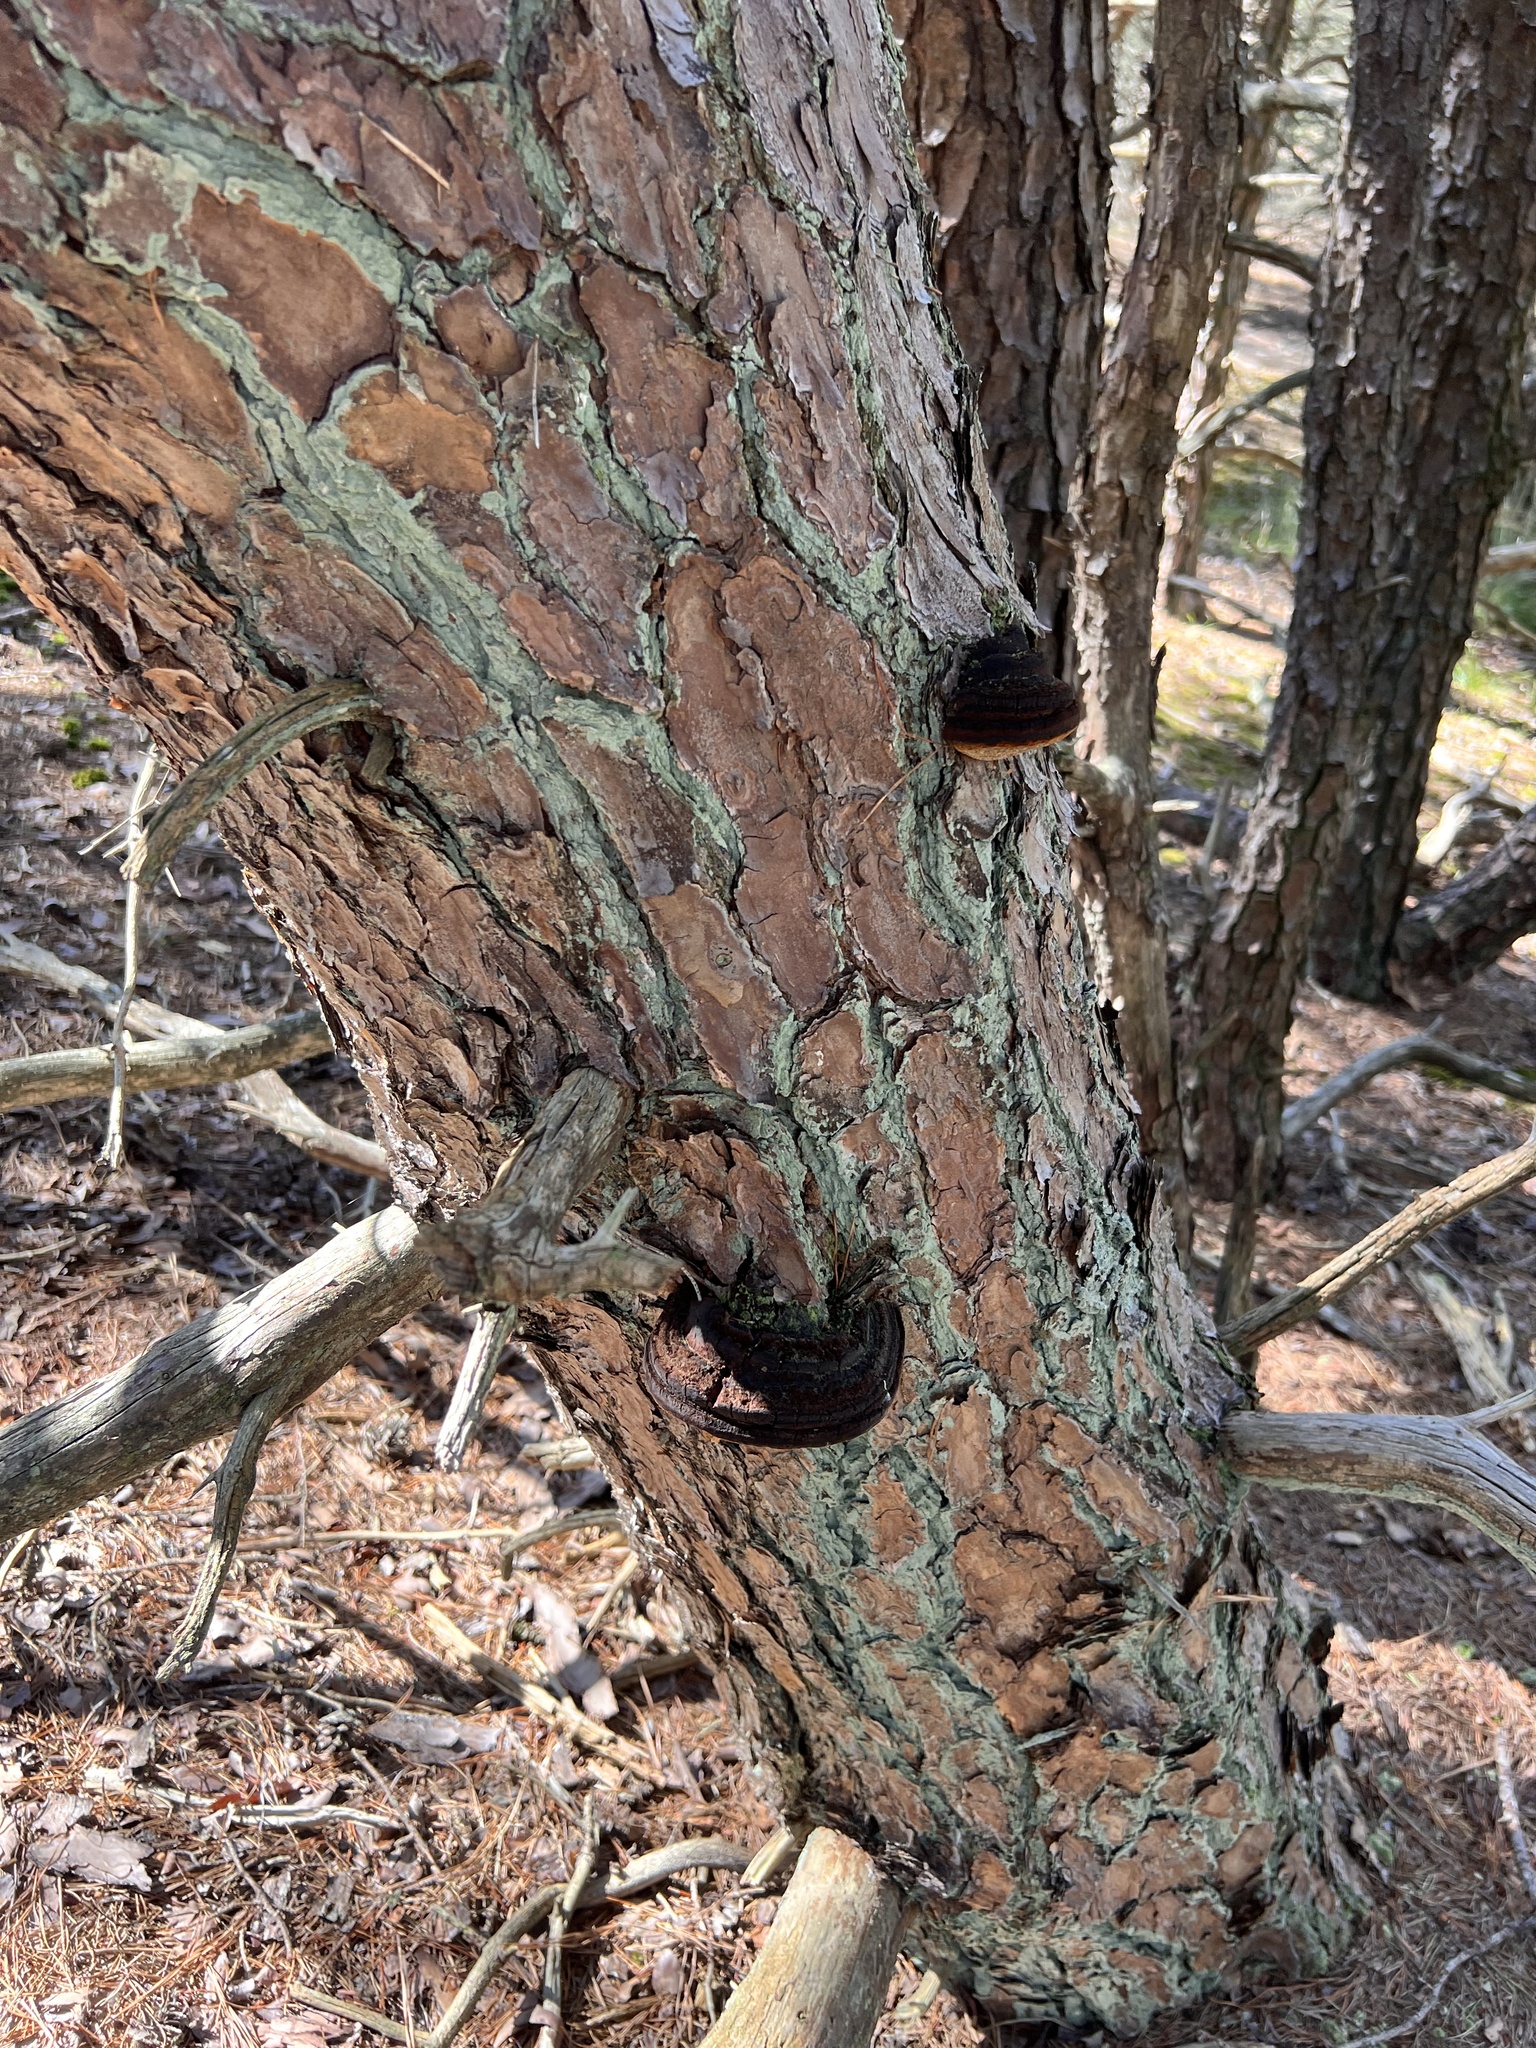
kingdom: Fungi
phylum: Basidiomycota
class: Agaricomycetes
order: Hymenochaetales
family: Hymenochaetaceae
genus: Porodaedalea
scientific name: Porodaedalea pini
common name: Pine bracket
